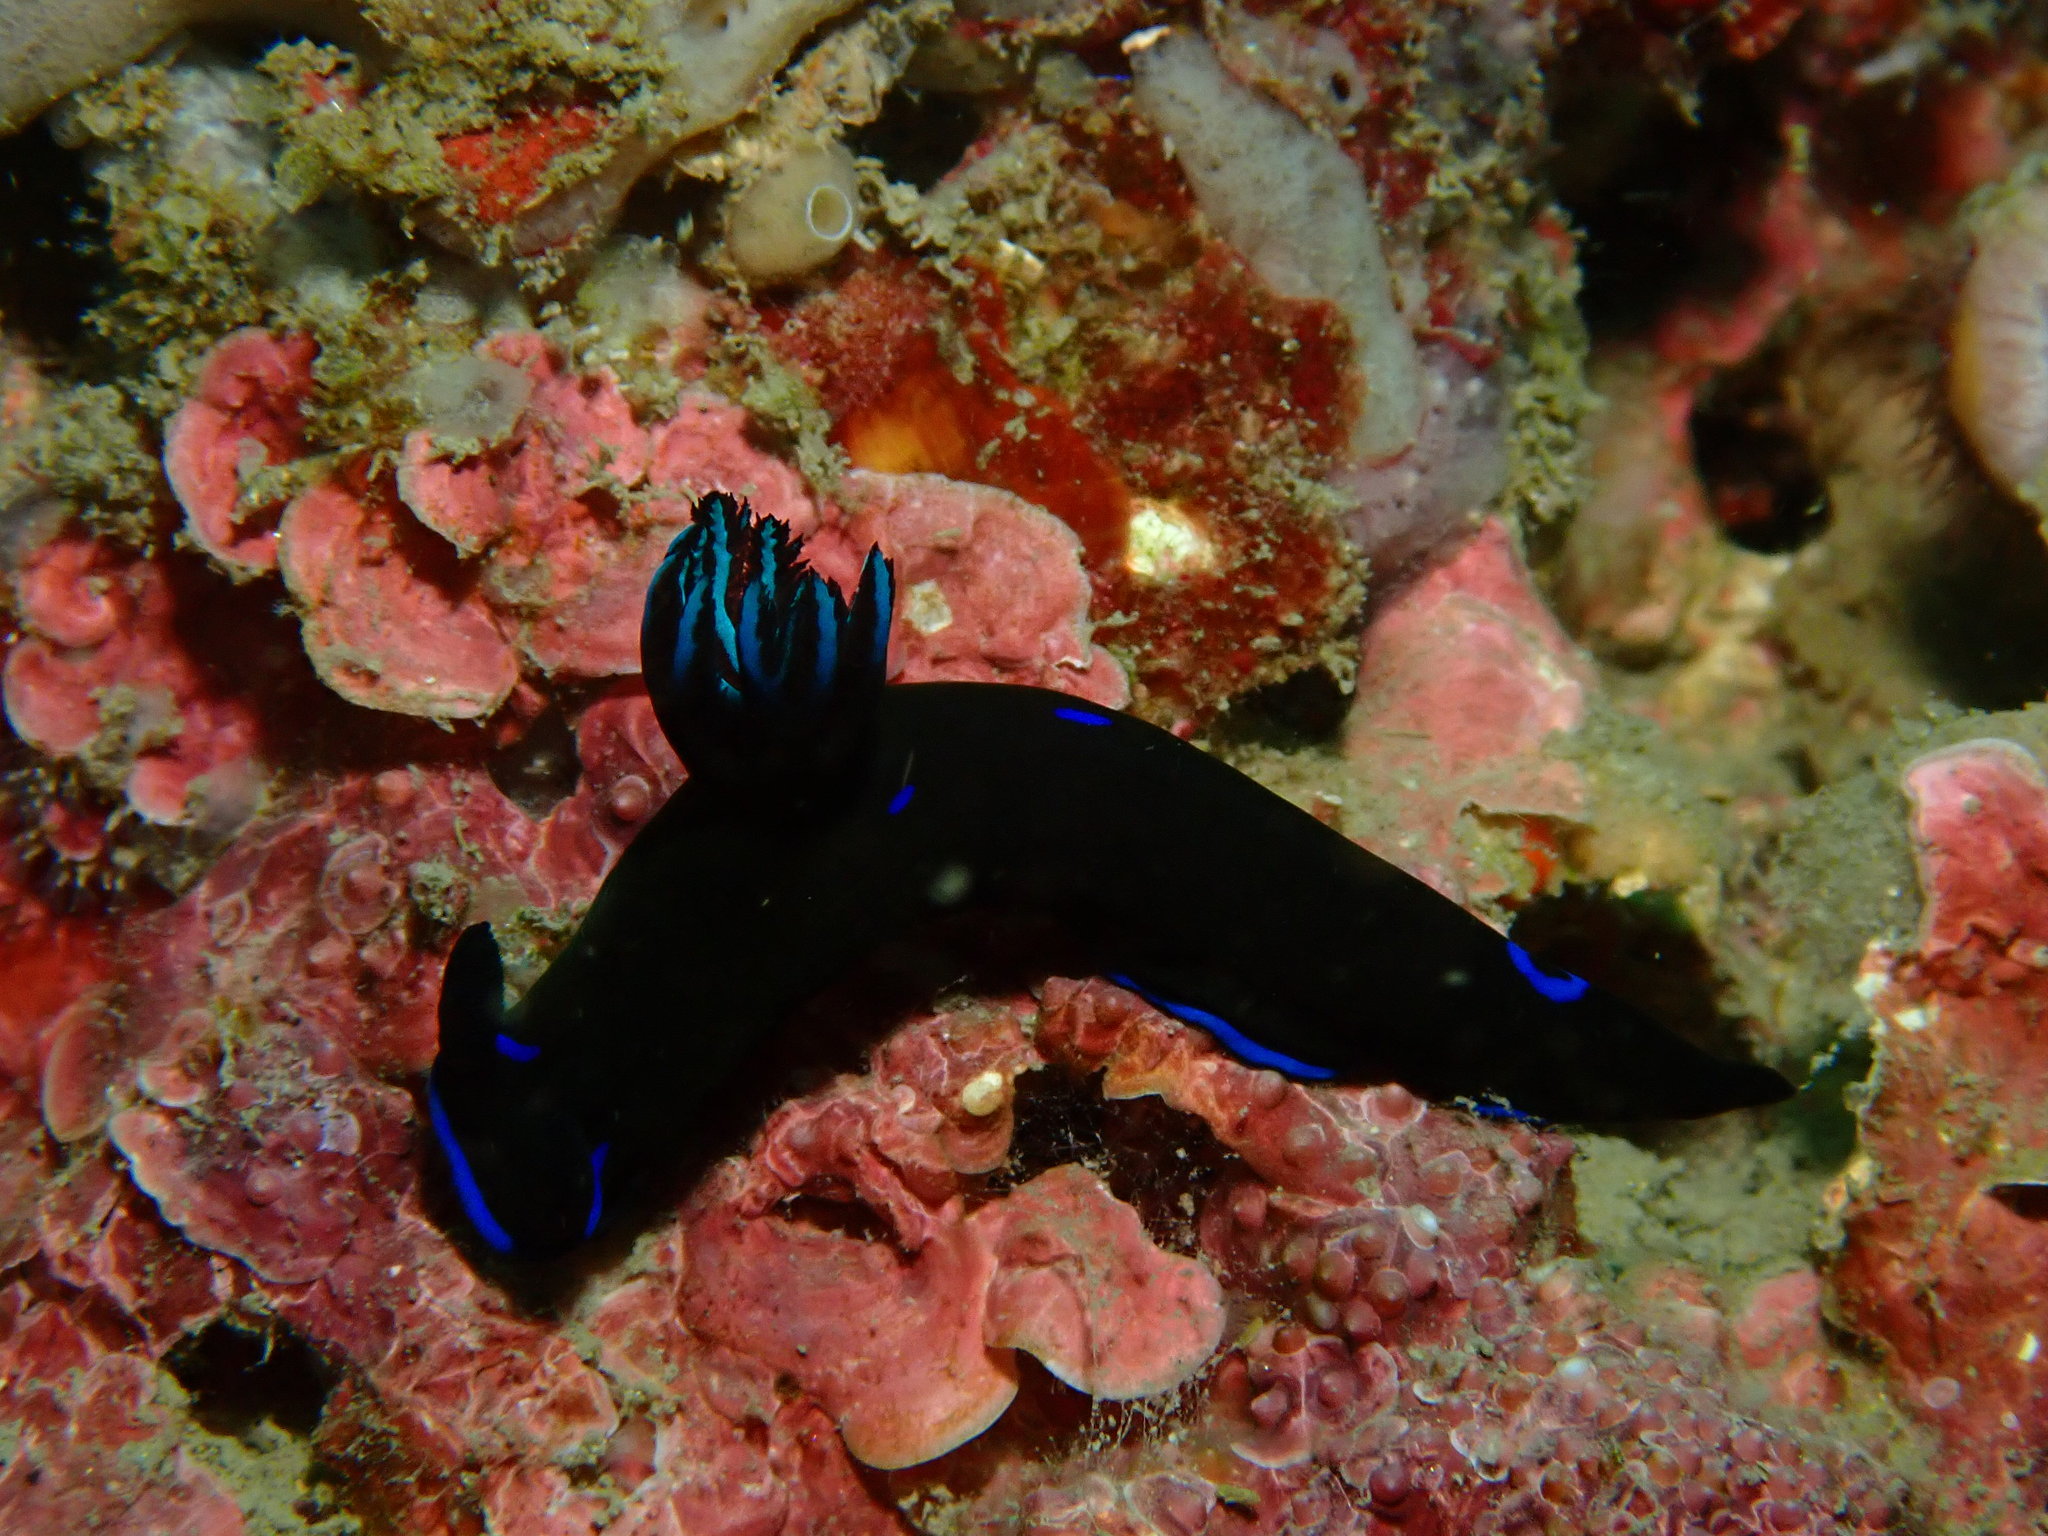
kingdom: Animalia
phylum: Mollusca
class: Gastropoda
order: Nudibranchia
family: Polyceridae
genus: Tambja
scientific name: Tambja morosa
